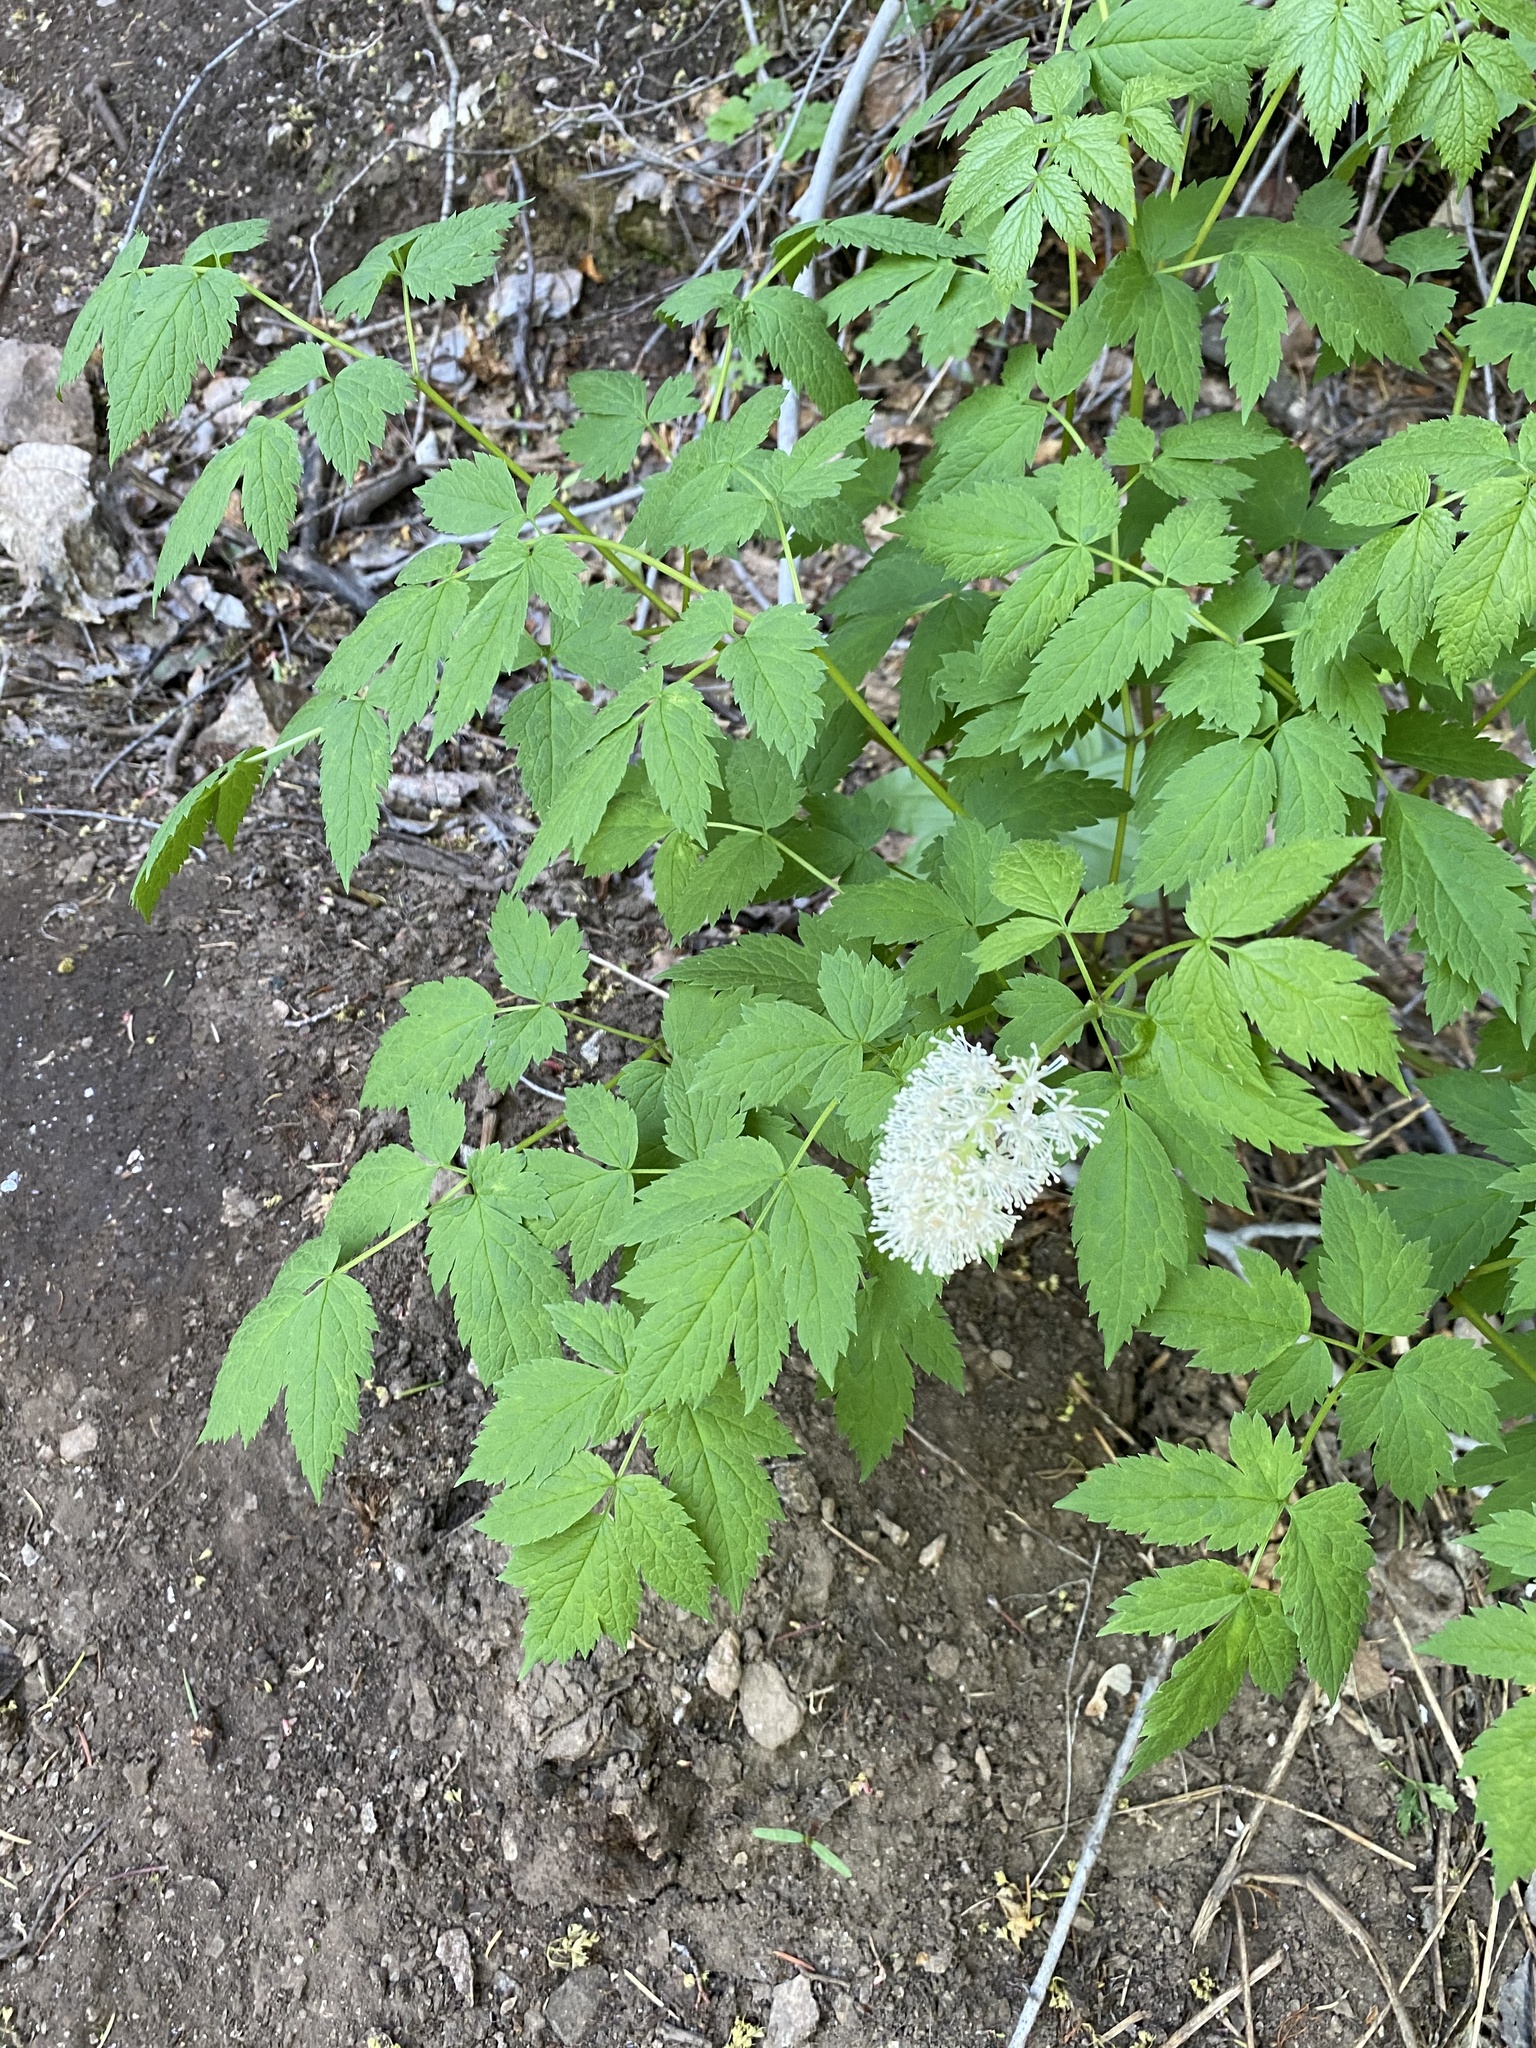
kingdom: Plantae
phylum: Tracheophyta
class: Magnoliopsida
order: Ranunculales
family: Ranunculaceae
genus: Actaea
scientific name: Actaea rubra
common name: Red baneberry
